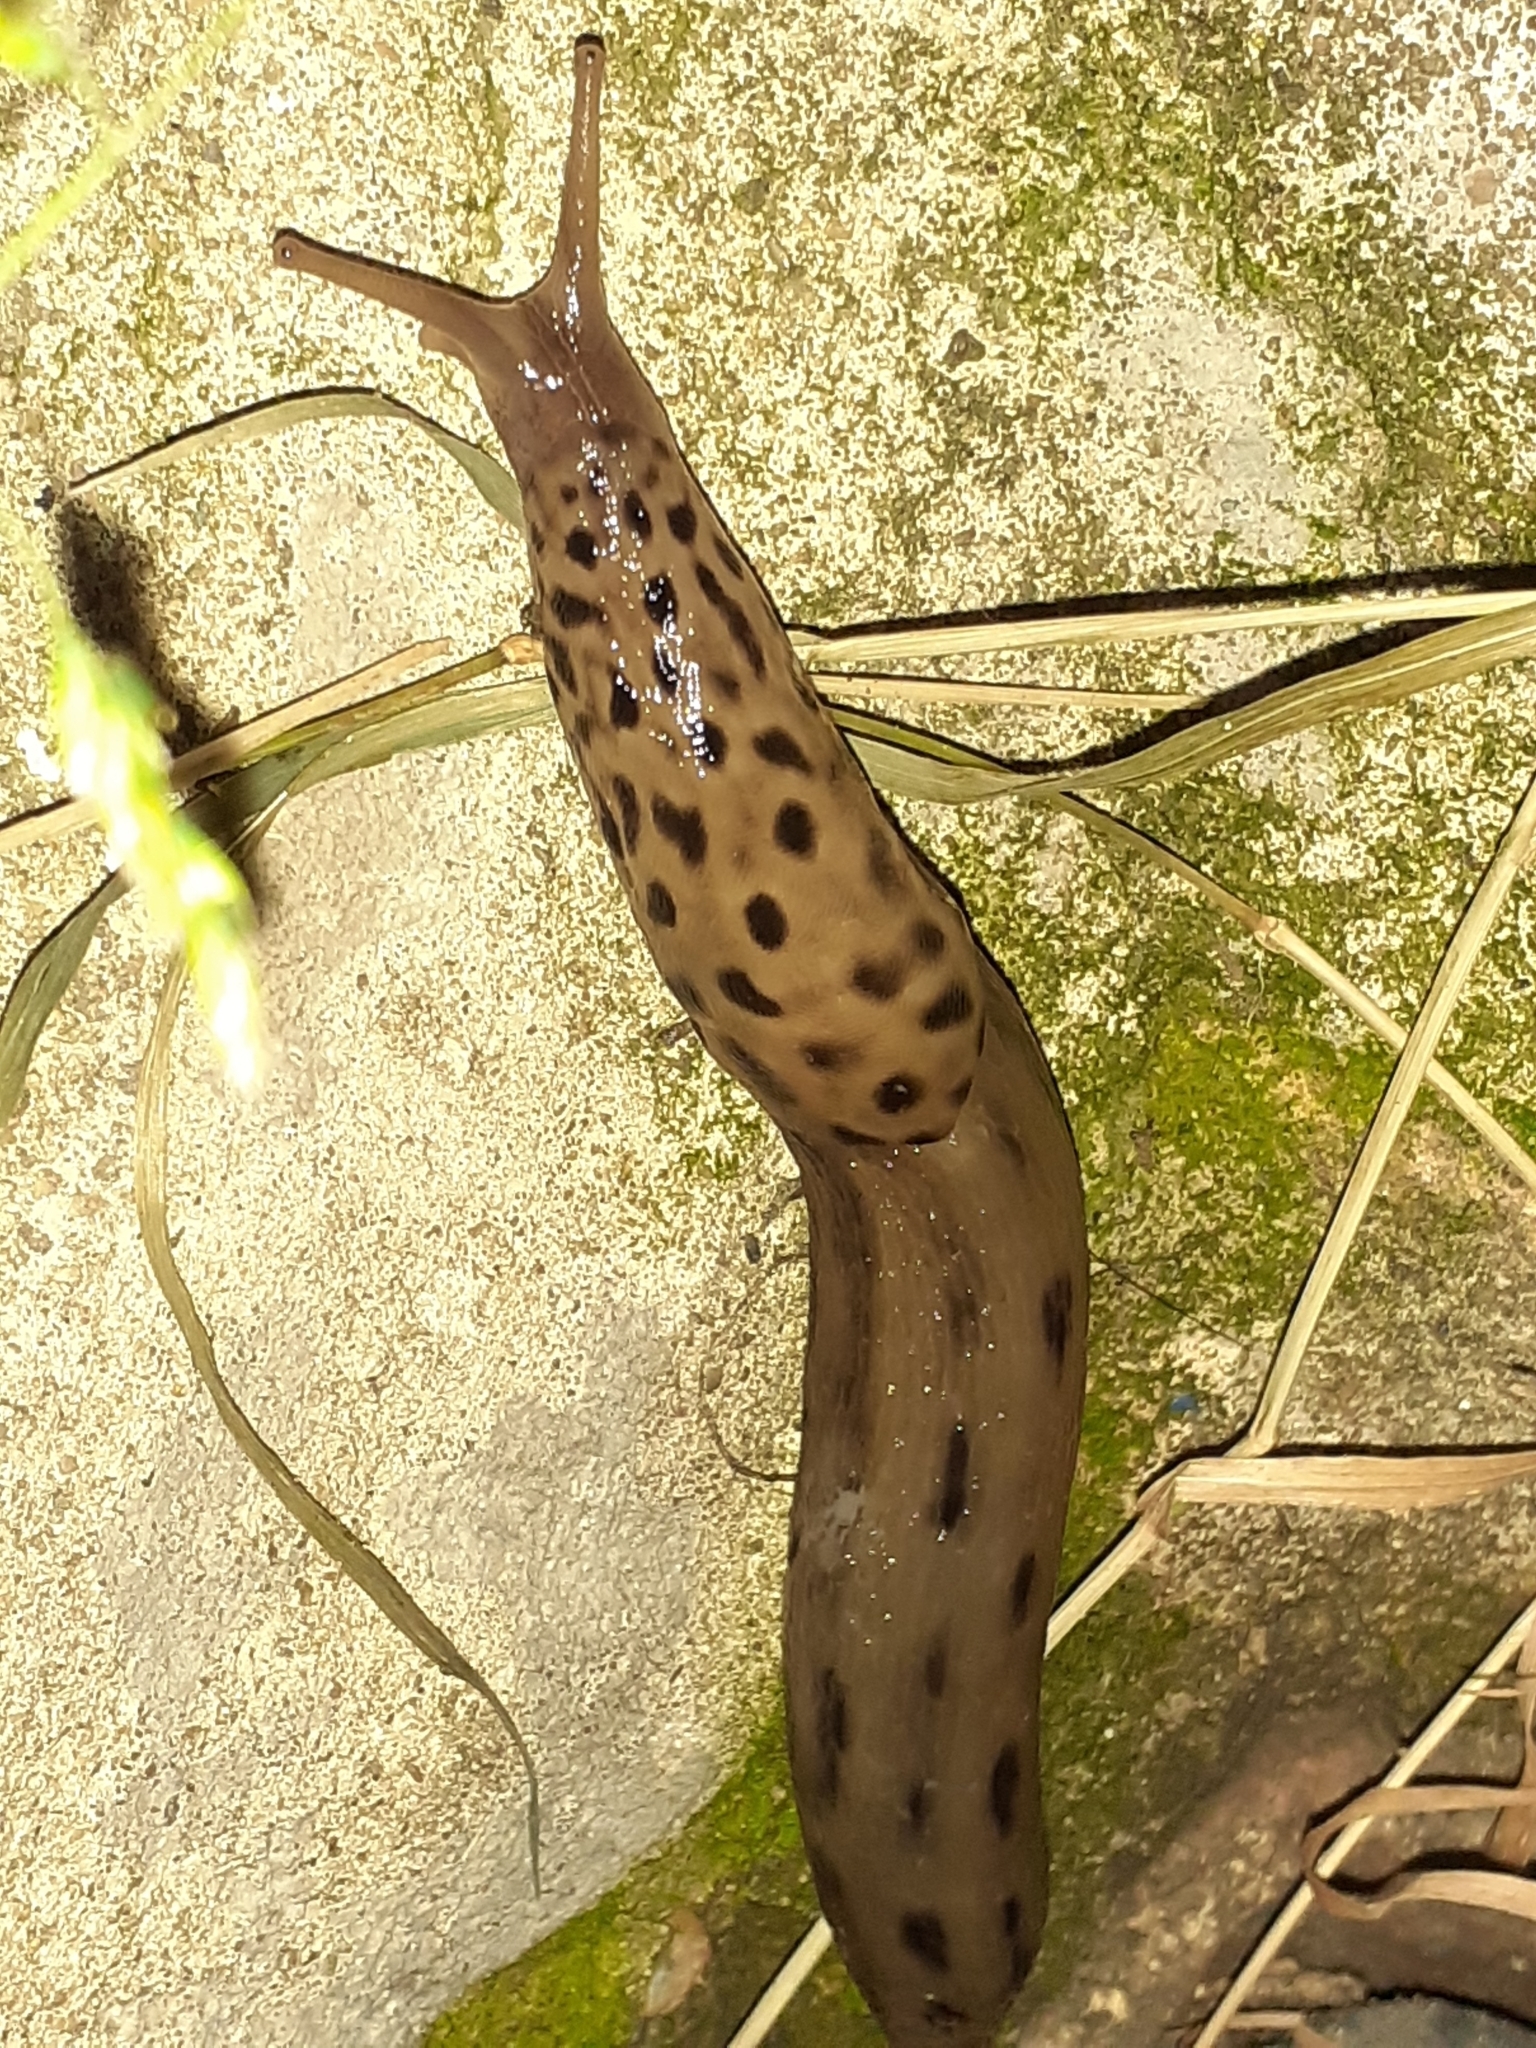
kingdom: Animalia
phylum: Mollusca
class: Gastropoda
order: Stylommatophora
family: Limacidae
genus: Limax
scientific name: Limax maximus
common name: Great grey slug
